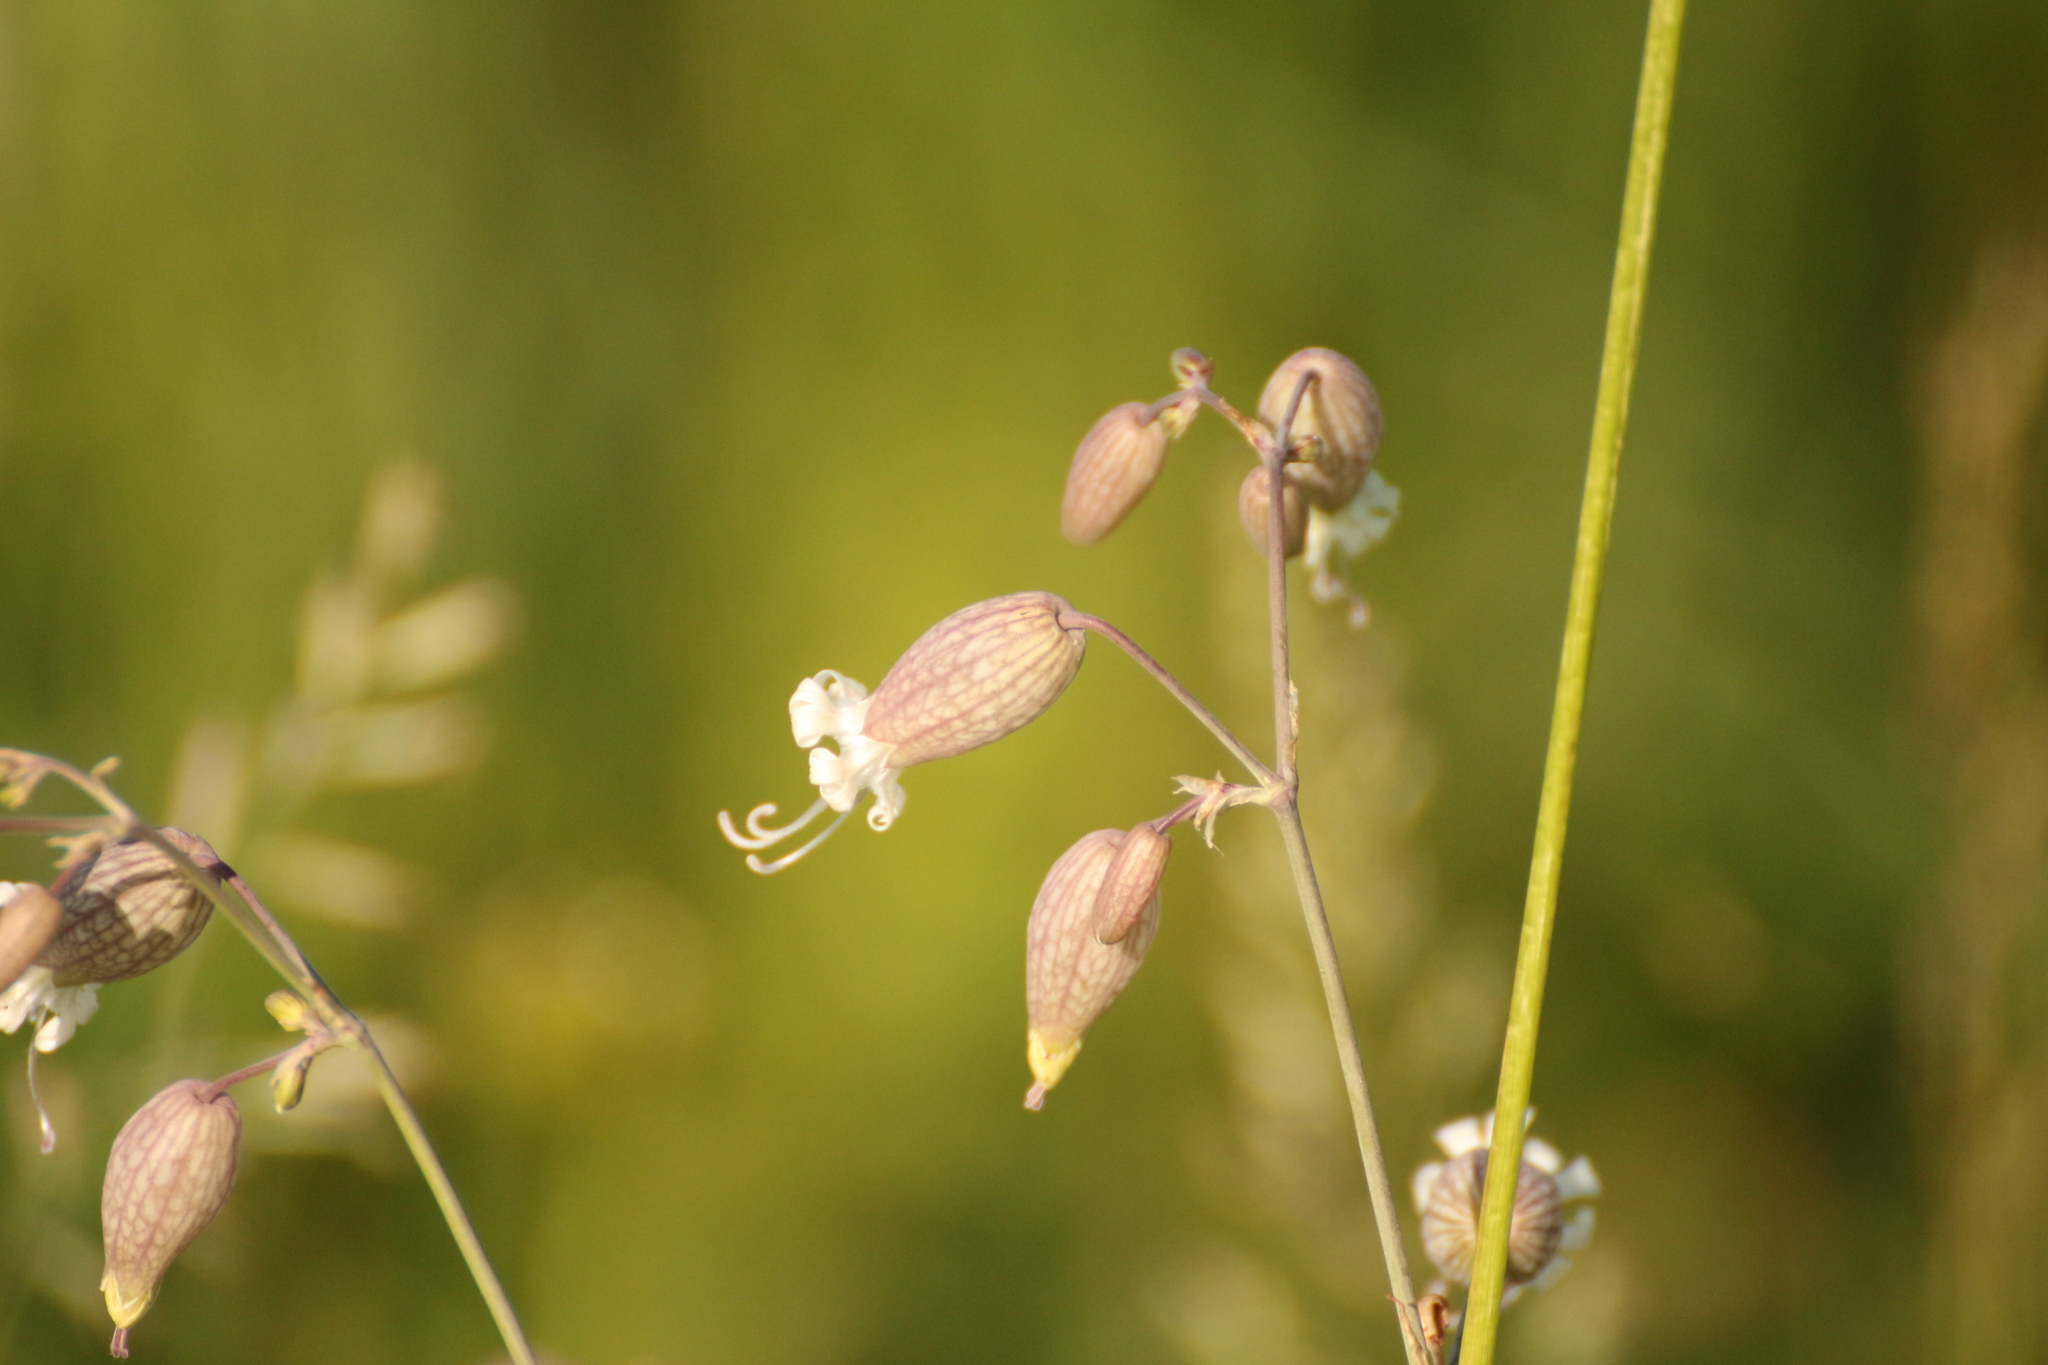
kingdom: Plantae
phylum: Tracheophyta
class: Magnoliopsida
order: Caryophyllales
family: Caryophyllaceae
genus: Silene
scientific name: Silene vulgaris
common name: Bladder campion
